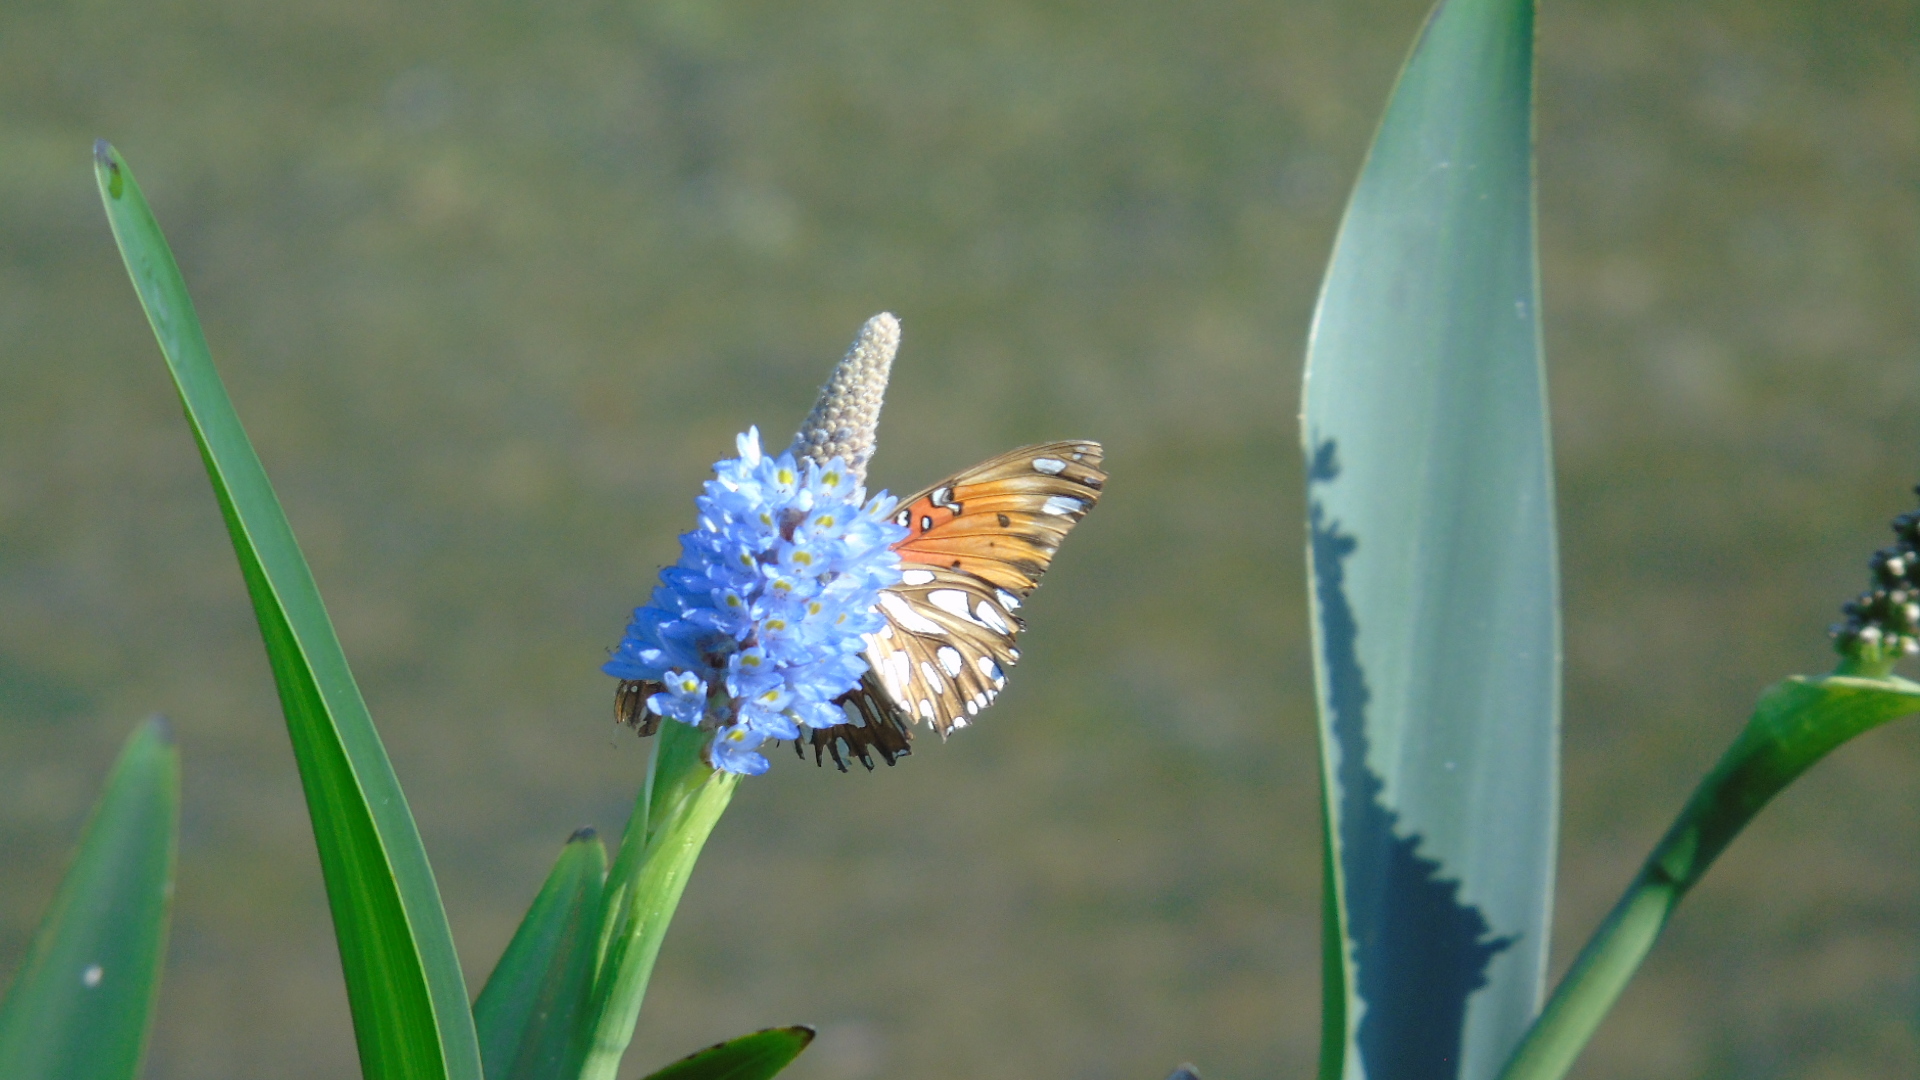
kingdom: Animalia
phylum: Arthropoda
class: Insecta
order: Lepidoptera
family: Nymphalidae
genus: Dione
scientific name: Dione vanillae
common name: Gulf fritillary
